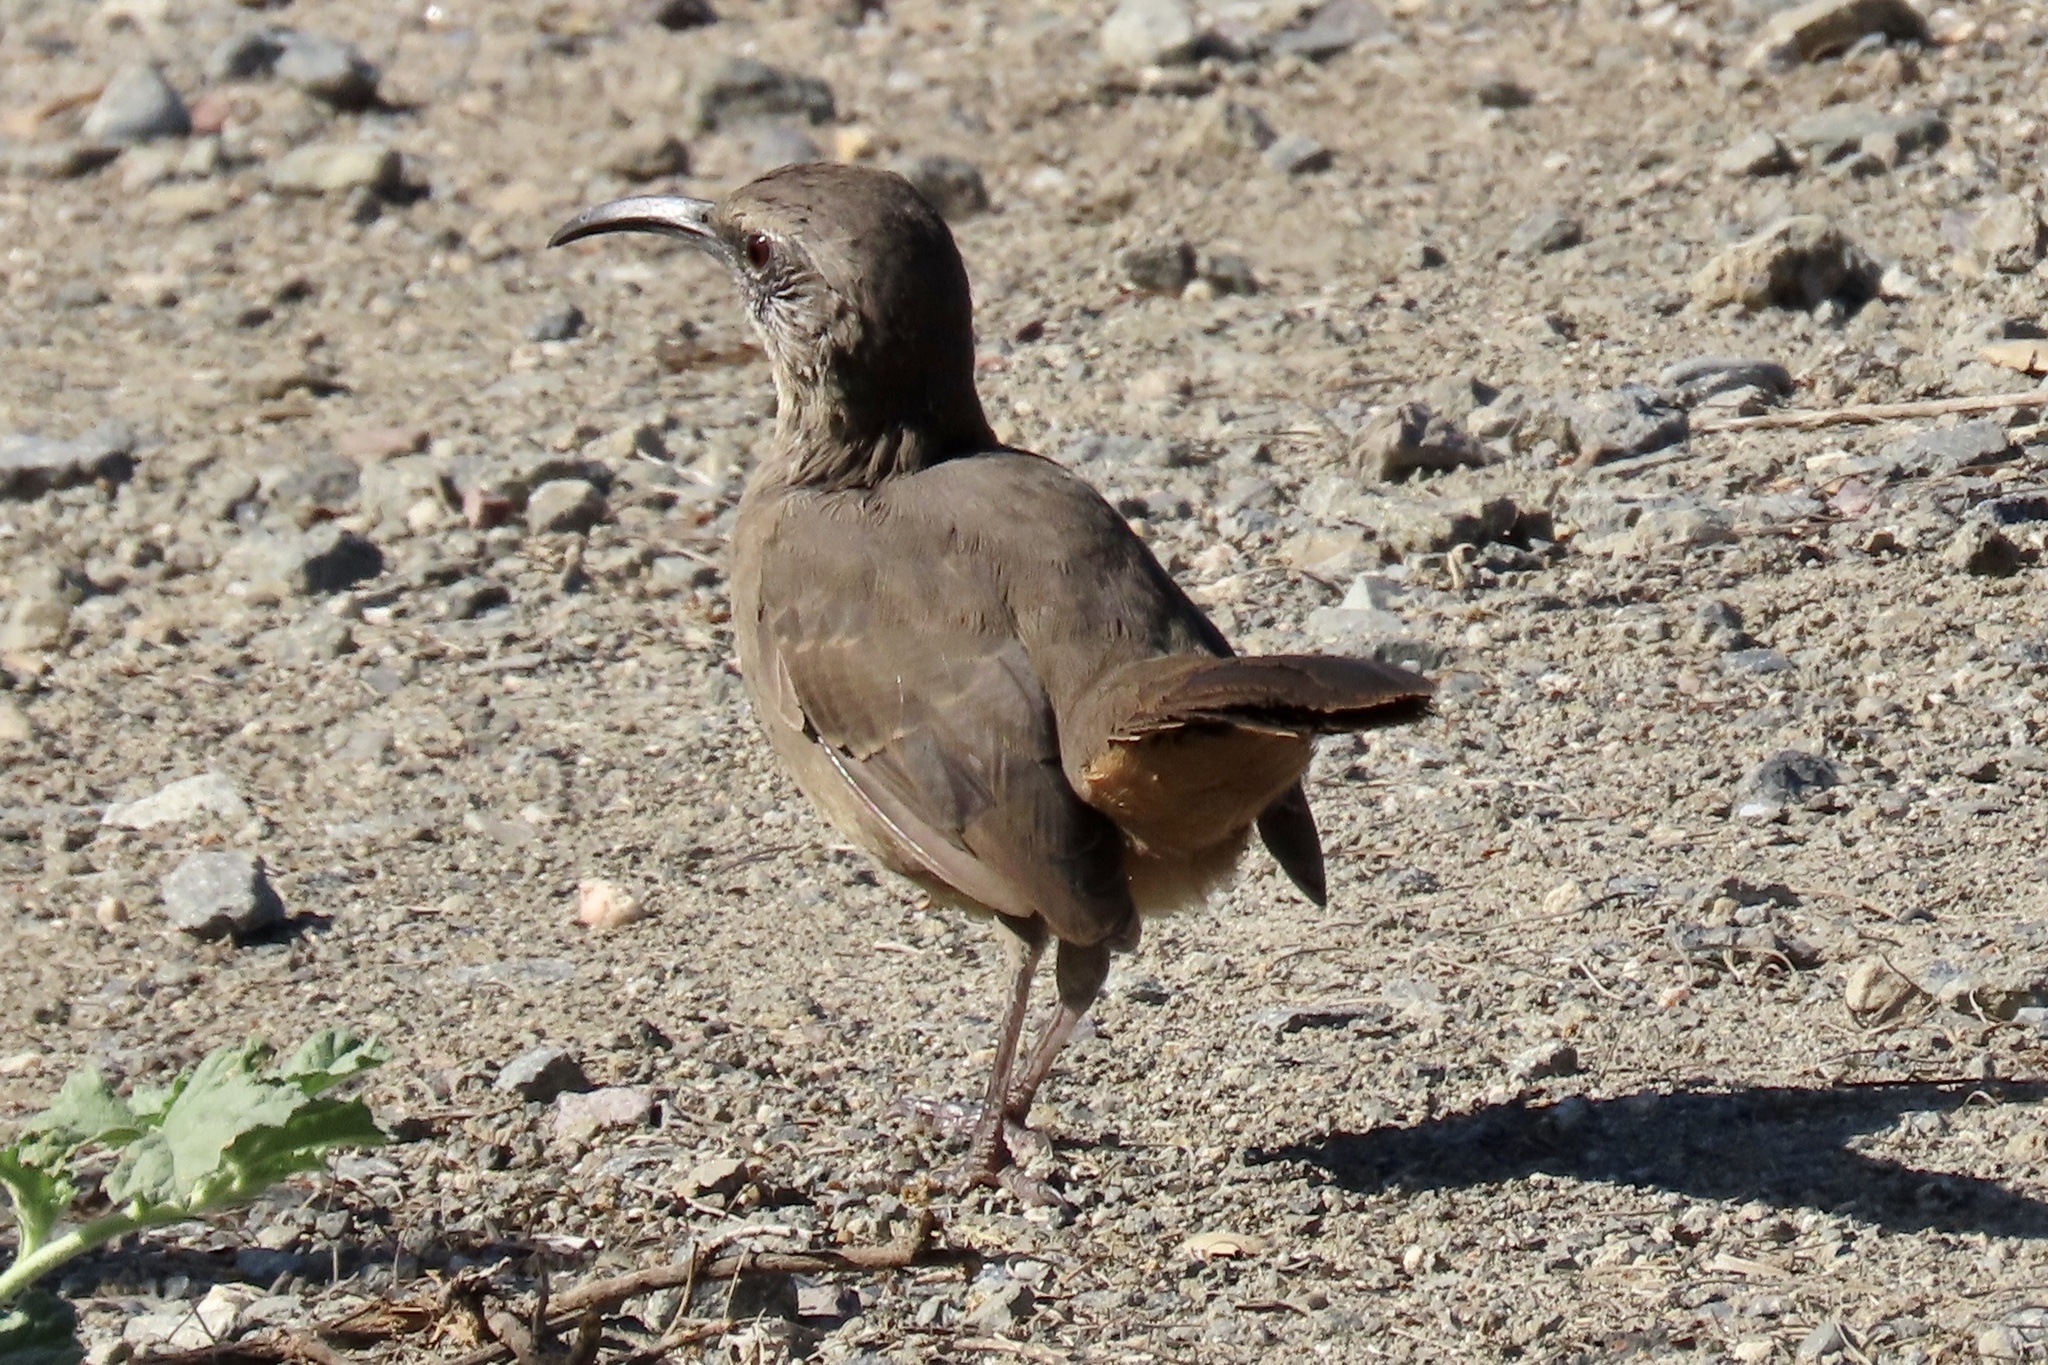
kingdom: Animalia
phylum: Chordata
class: Aves
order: Passeriformes
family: Mimidae
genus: Toxostoma
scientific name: Toxostoma redivivum
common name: California thrasher
